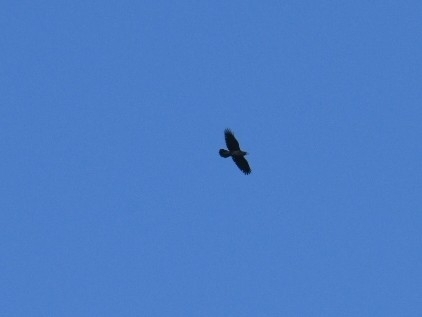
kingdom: Animalia
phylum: Chordata
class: Aves
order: Passeriformes
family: Corvidae
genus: Corvus
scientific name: Corvus corax
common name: Common raven
